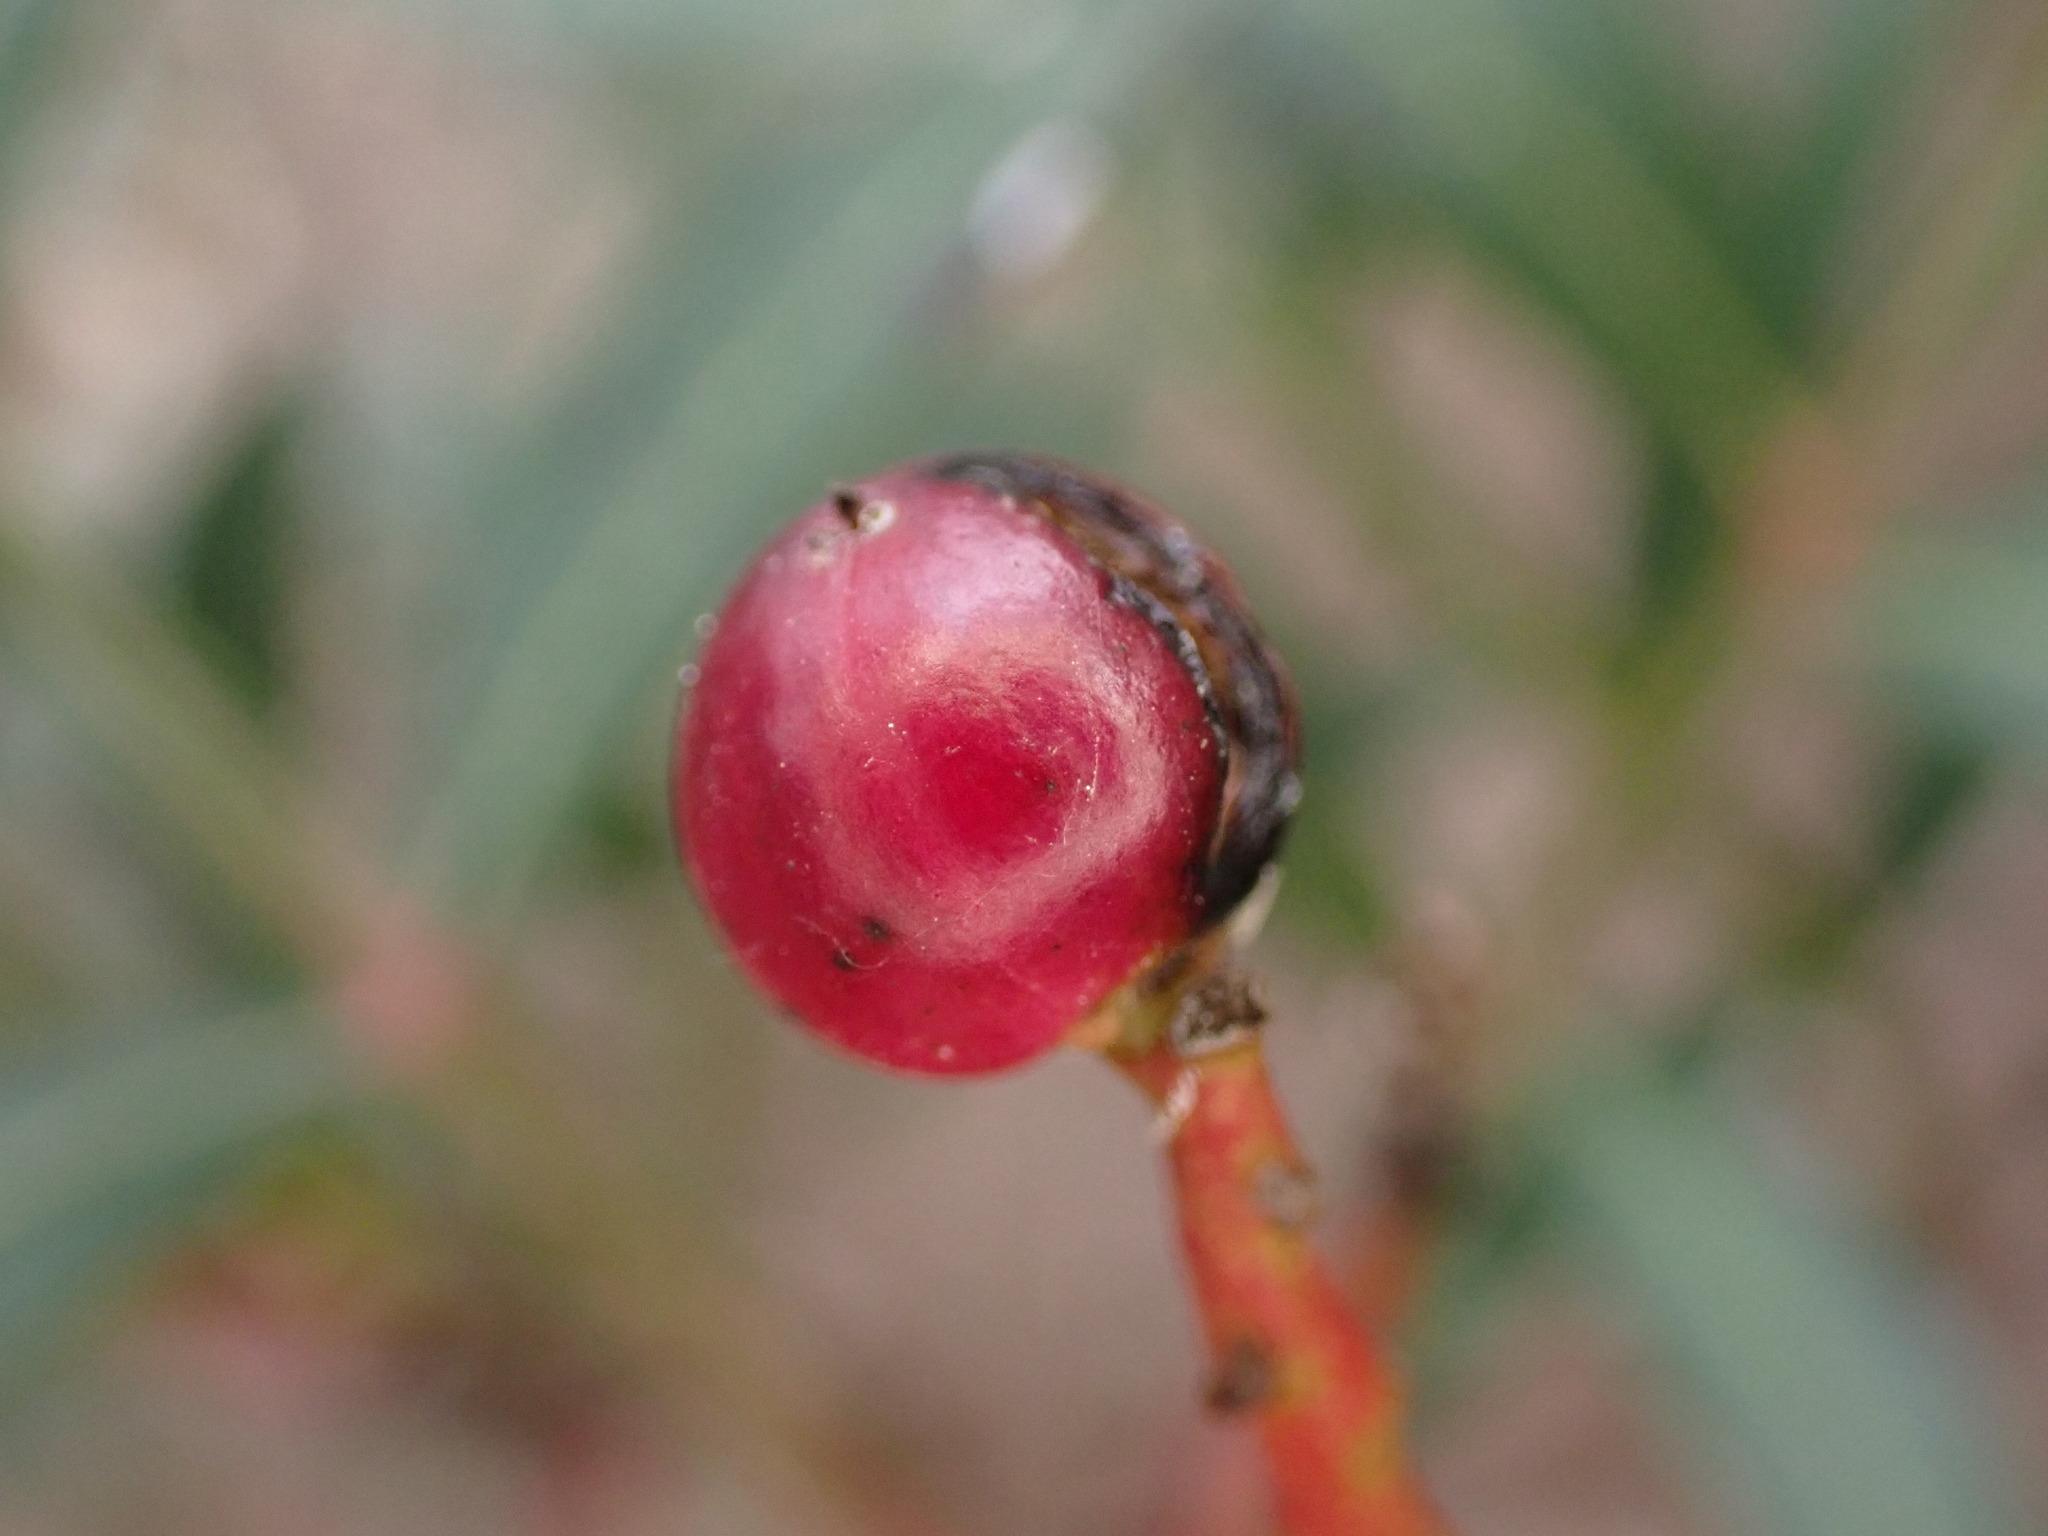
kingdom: Plantae
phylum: Tracheophyta
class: Magnoliopsida
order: Sapindales
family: Anacardiaceae
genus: Pistacia
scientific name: Pistacia lentiscus
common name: Lentisk
